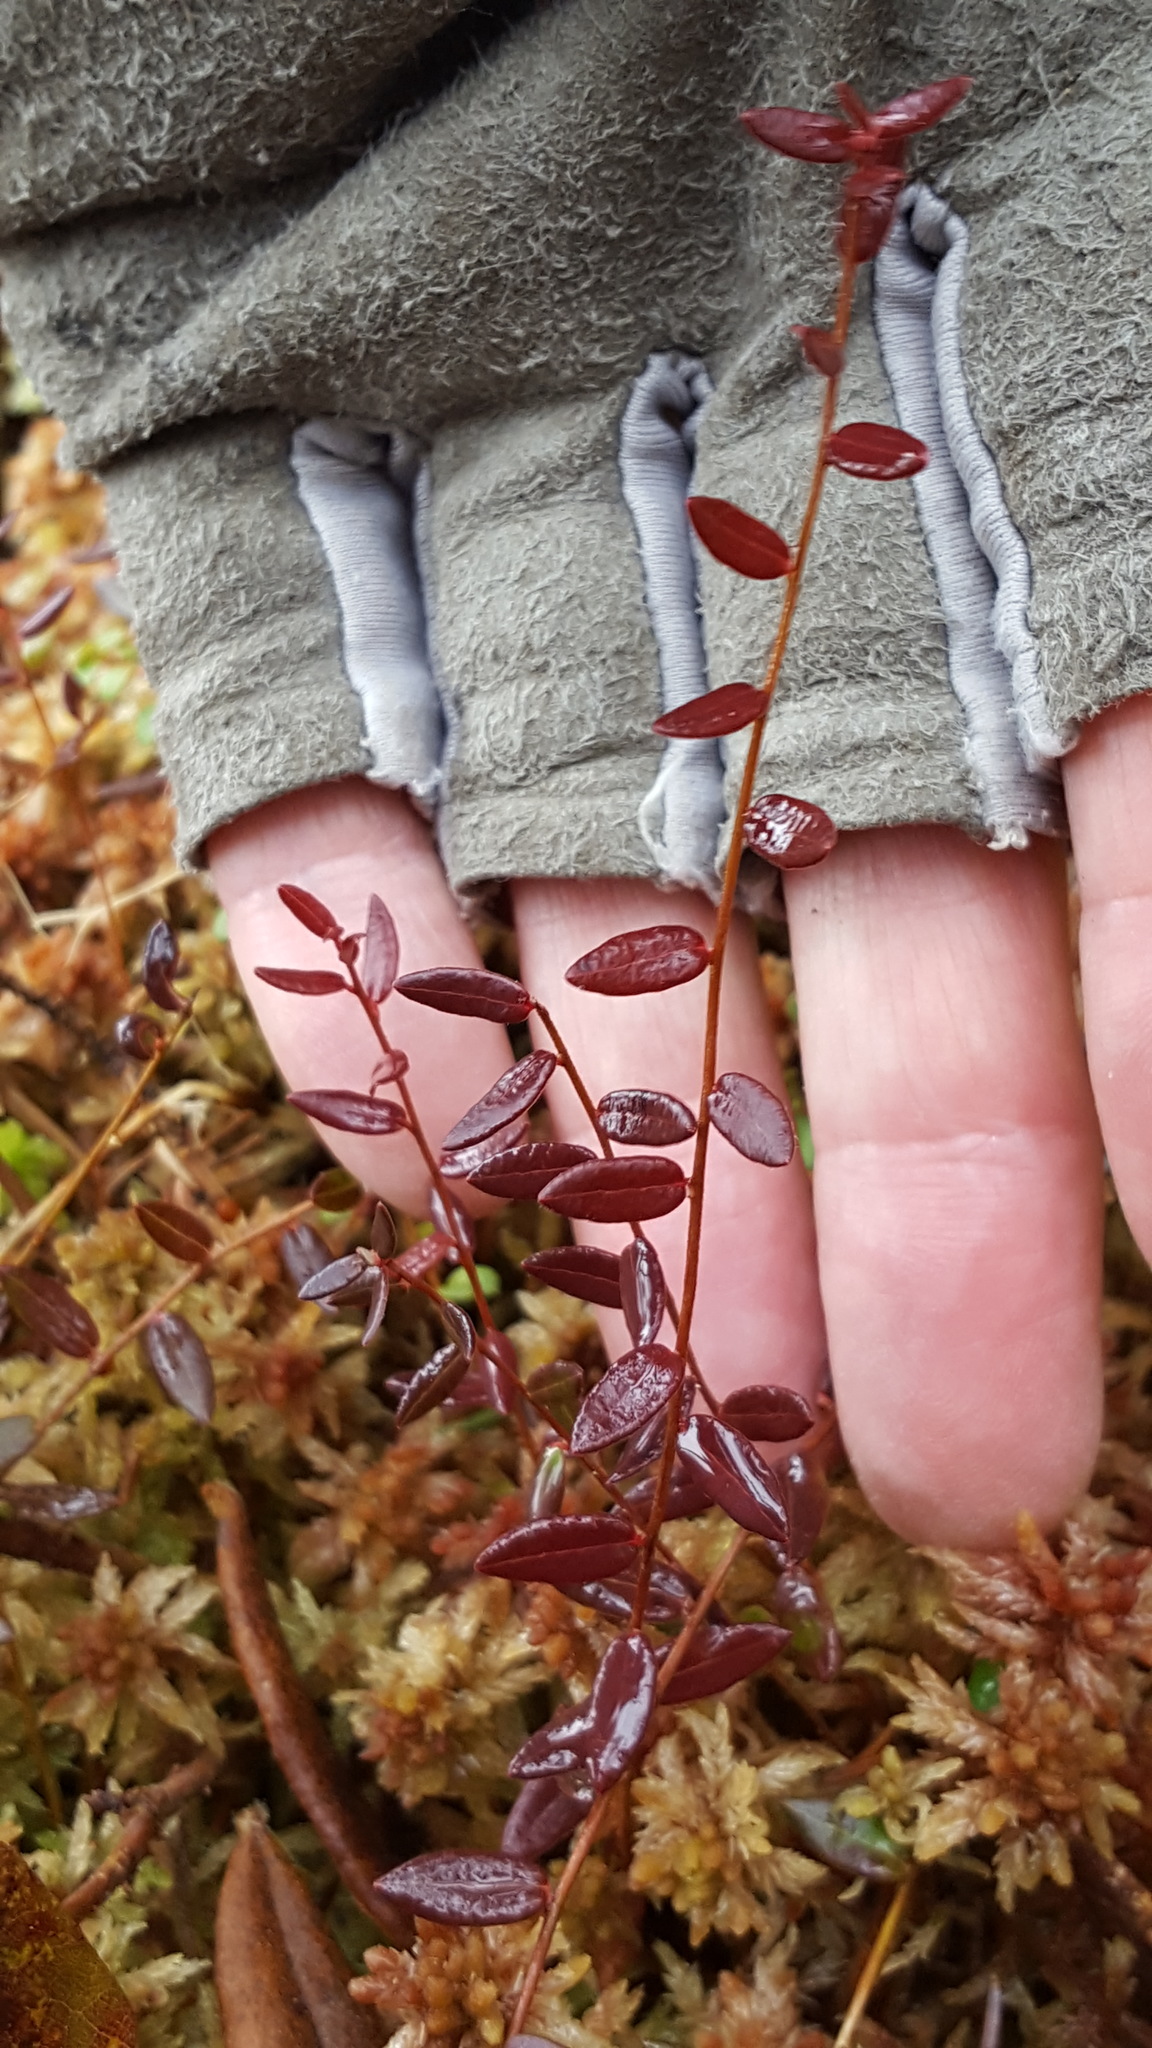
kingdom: Plantae
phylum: Tracheophyta
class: Magnoliopsida
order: Ericales
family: Ericaceae
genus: Vaccinium
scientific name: Vaccinium oxycoccos
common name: Cranberry
